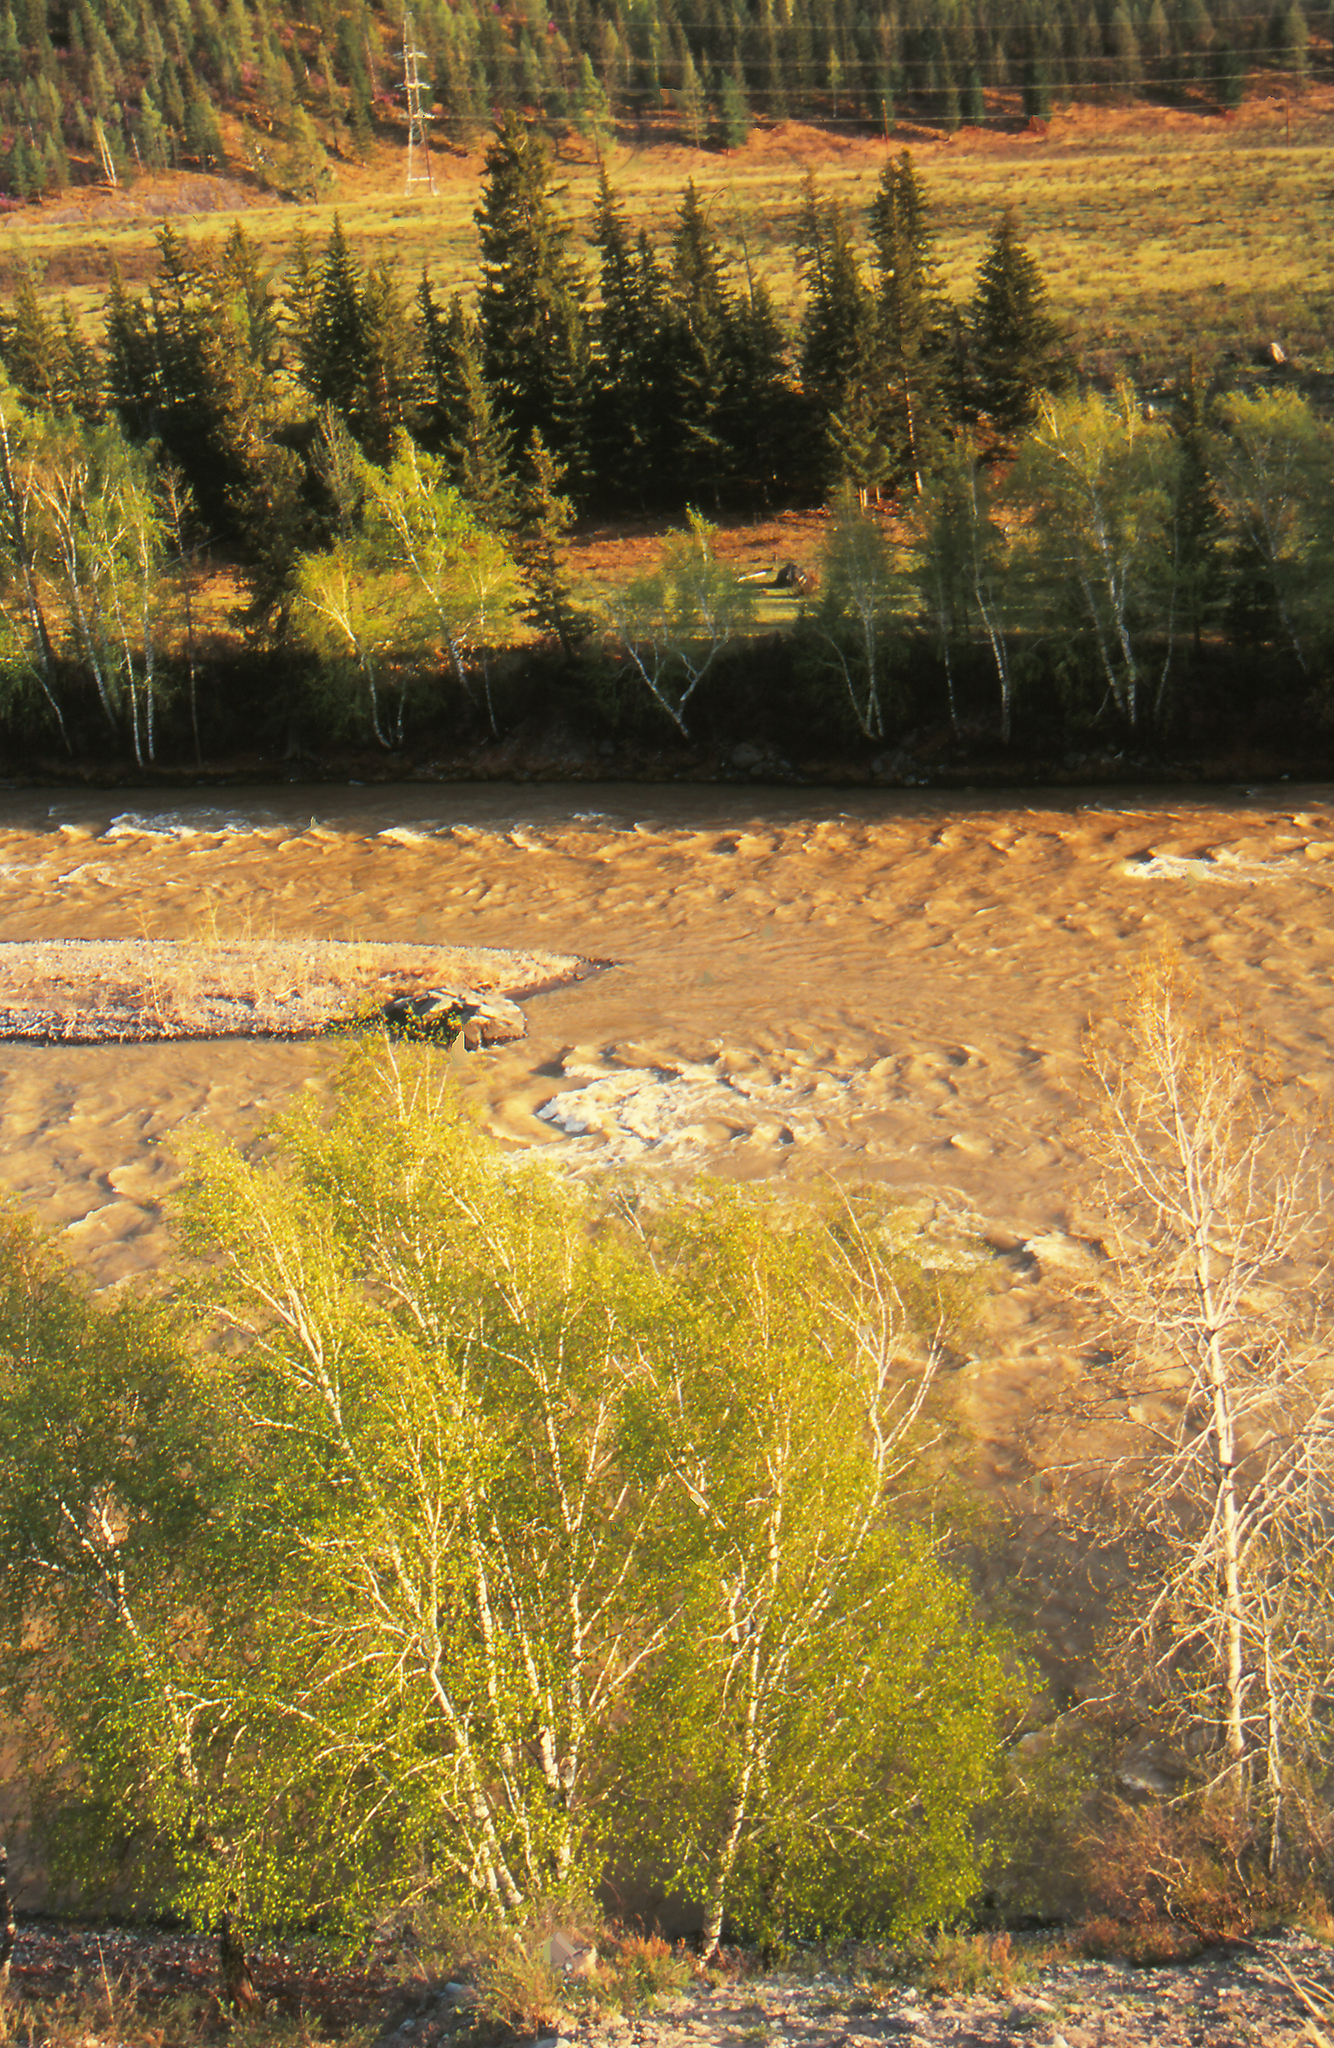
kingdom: Plantae
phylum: Tracheophyta
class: Pinopsida
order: Pinales
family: Pinaceae
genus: Picea
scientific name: Picea obovata
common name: Siberian spruce
